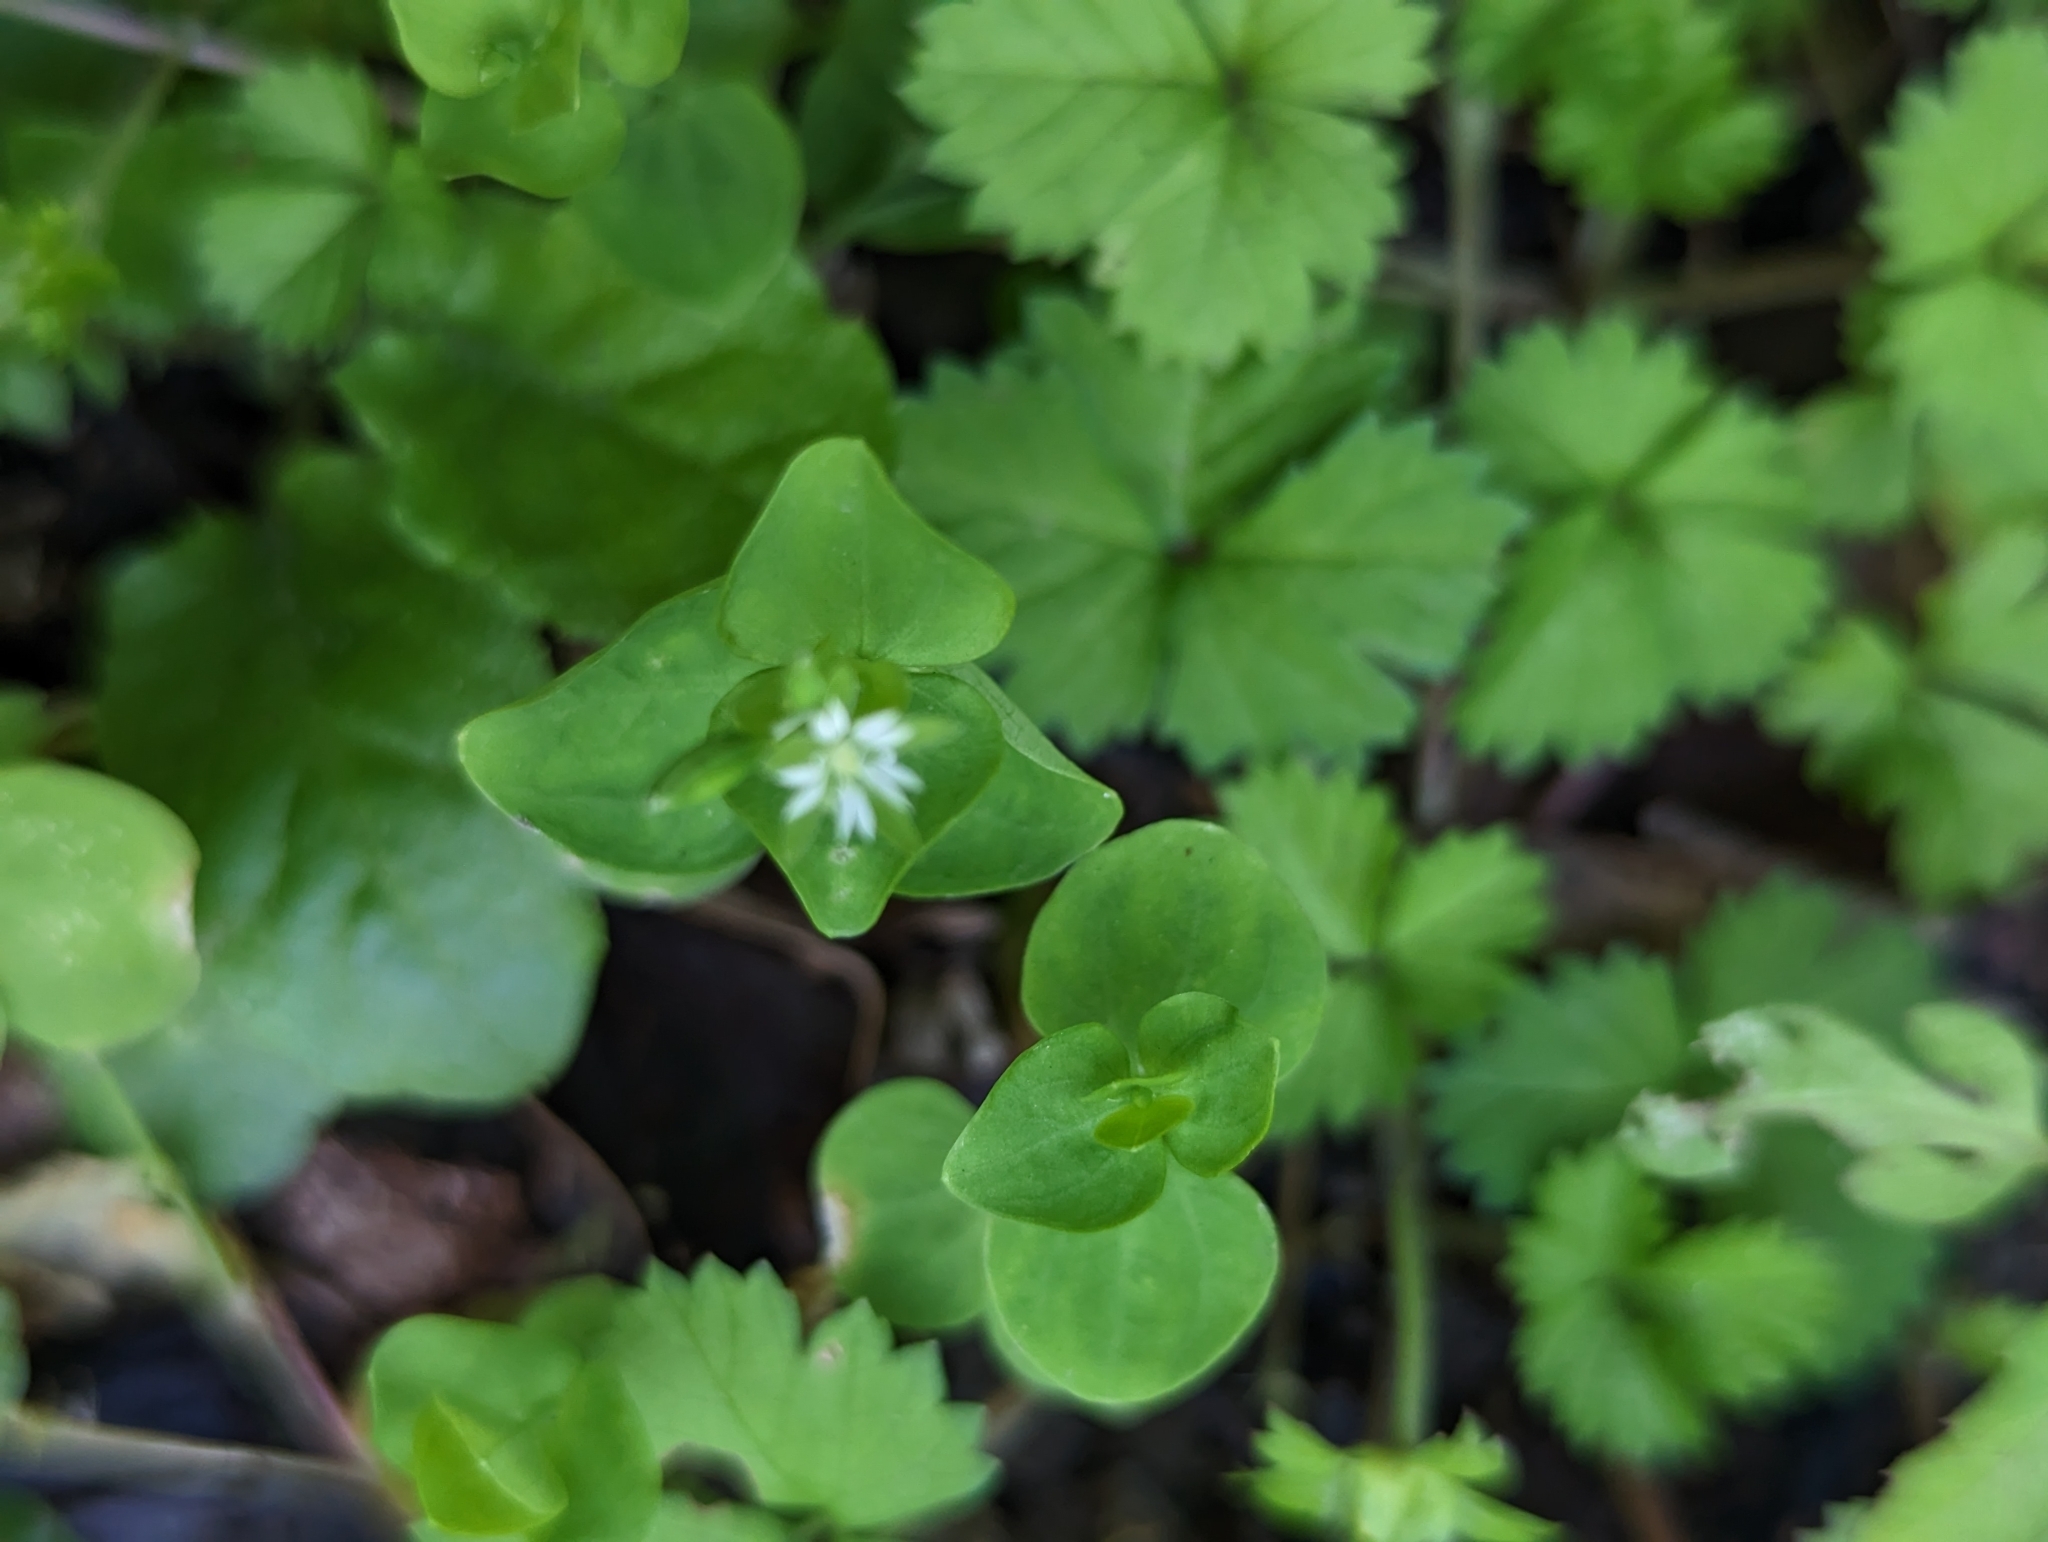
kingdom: Plantae
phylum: Tracheophyta
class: Magnoliopsida
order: Caryophyllales
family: Caryophyllaceae
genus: Drymaria
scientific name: Drymaria cordata
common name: Whitesnow
